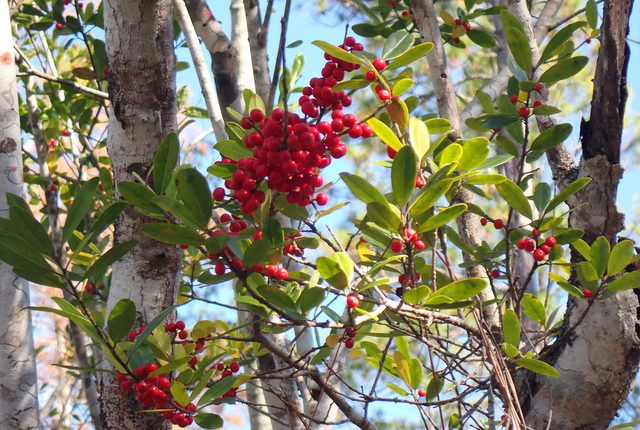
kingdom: Plantae
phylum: Tracheophyta
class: Magnoliopsida
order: Aquifoliales
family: Aquifoliaceae
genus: Ilex
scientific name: Ilex cassine
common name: Dahoon
